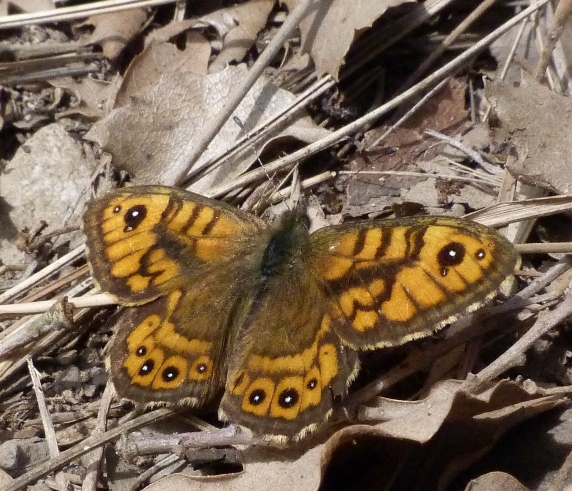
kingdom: Animalia
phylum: Arthropoda
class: Insecta
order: Lepidoptera
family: Nymphalidae
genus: Pararge
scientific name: Pararge Lasiommata megera
